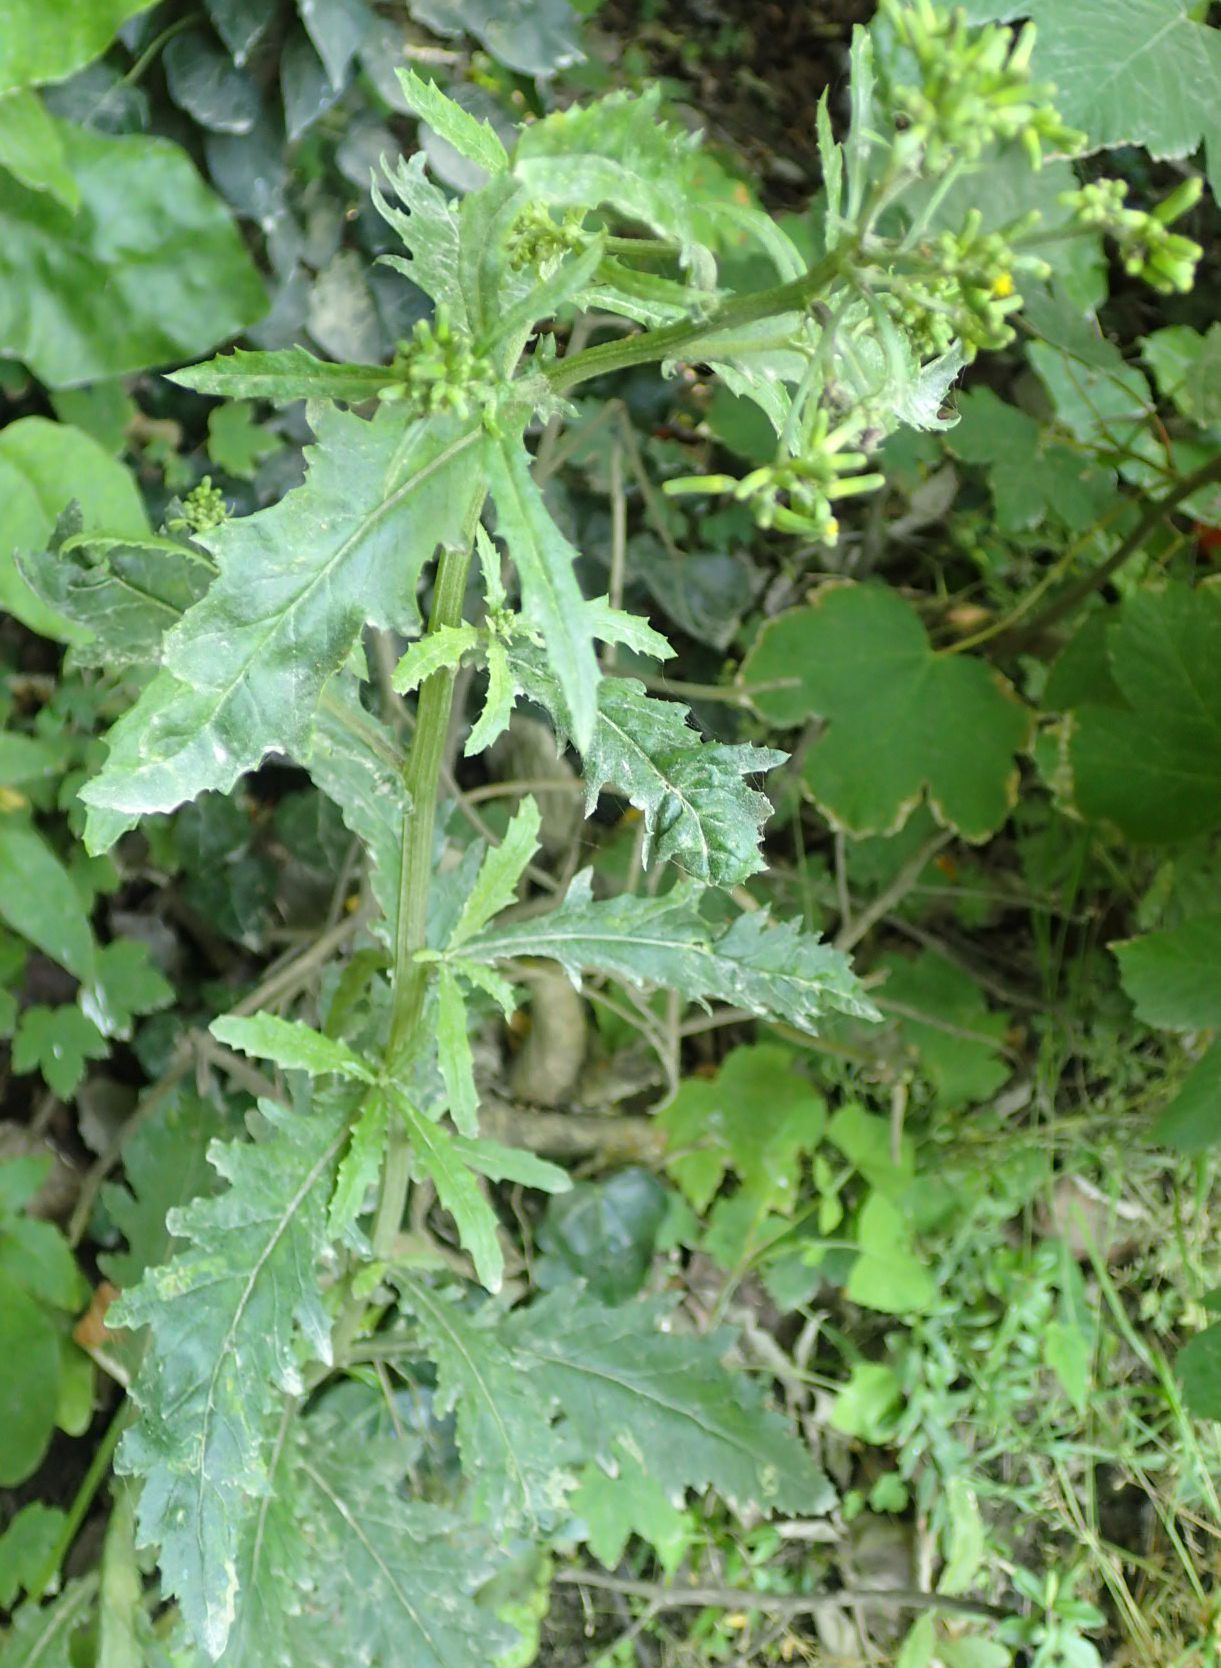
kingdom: Plantae
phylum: Tracheophyta
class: Magnoliopsida
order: Asterales
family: Asteraceae
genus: Senecio
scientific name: Senecio biserratus
